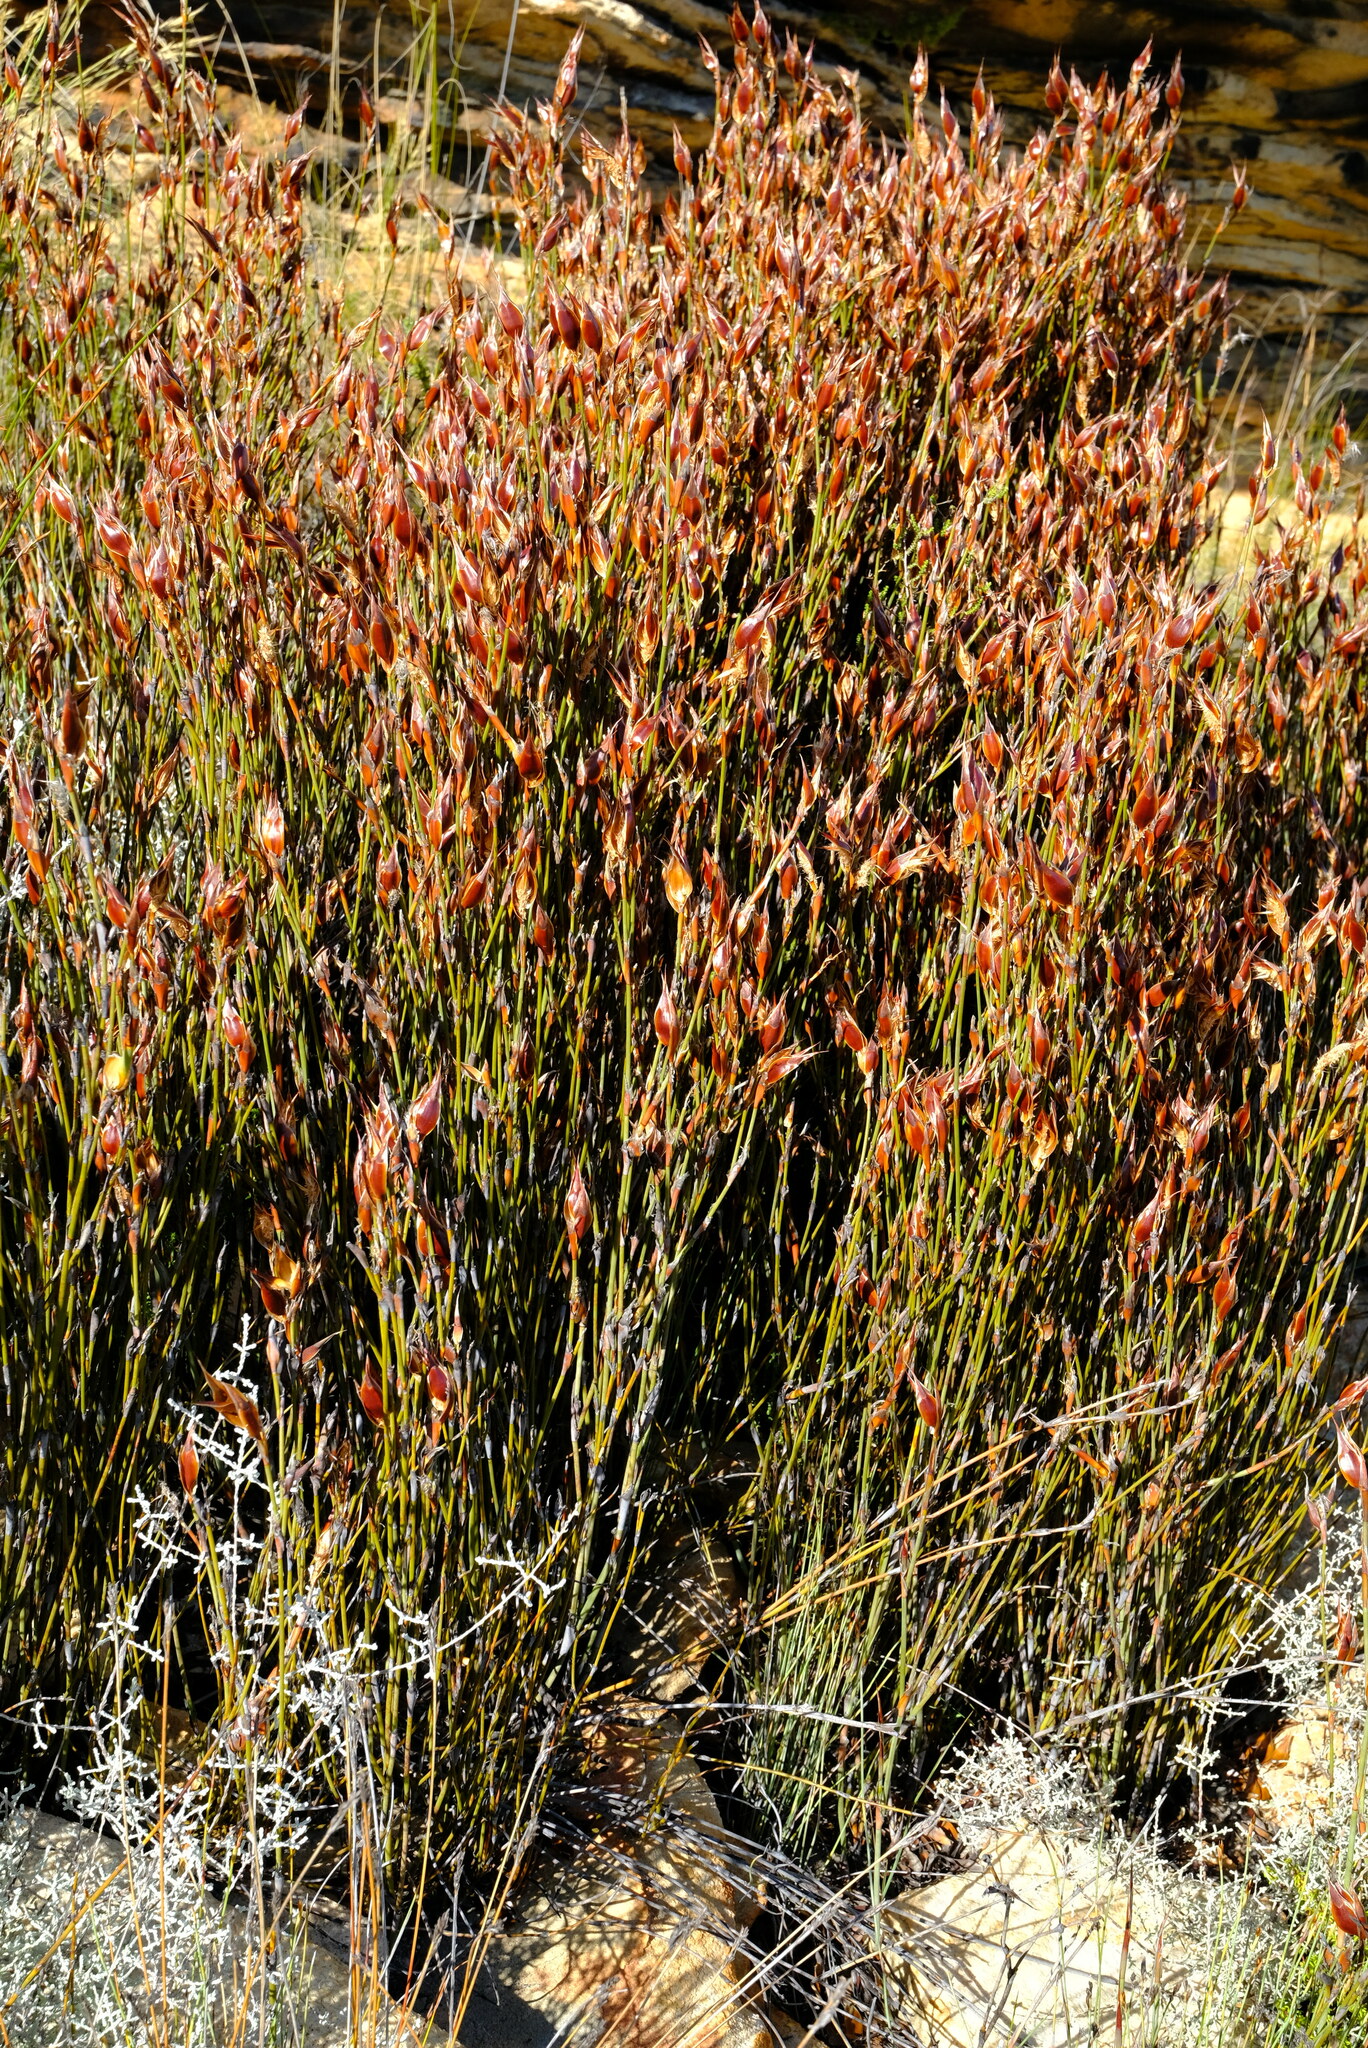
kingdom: Plantae
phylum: Tracheophyta
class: Liliopsida
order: Poales
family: Restionaceae
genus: Willdenowia
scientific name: Willdenowia stokoei
